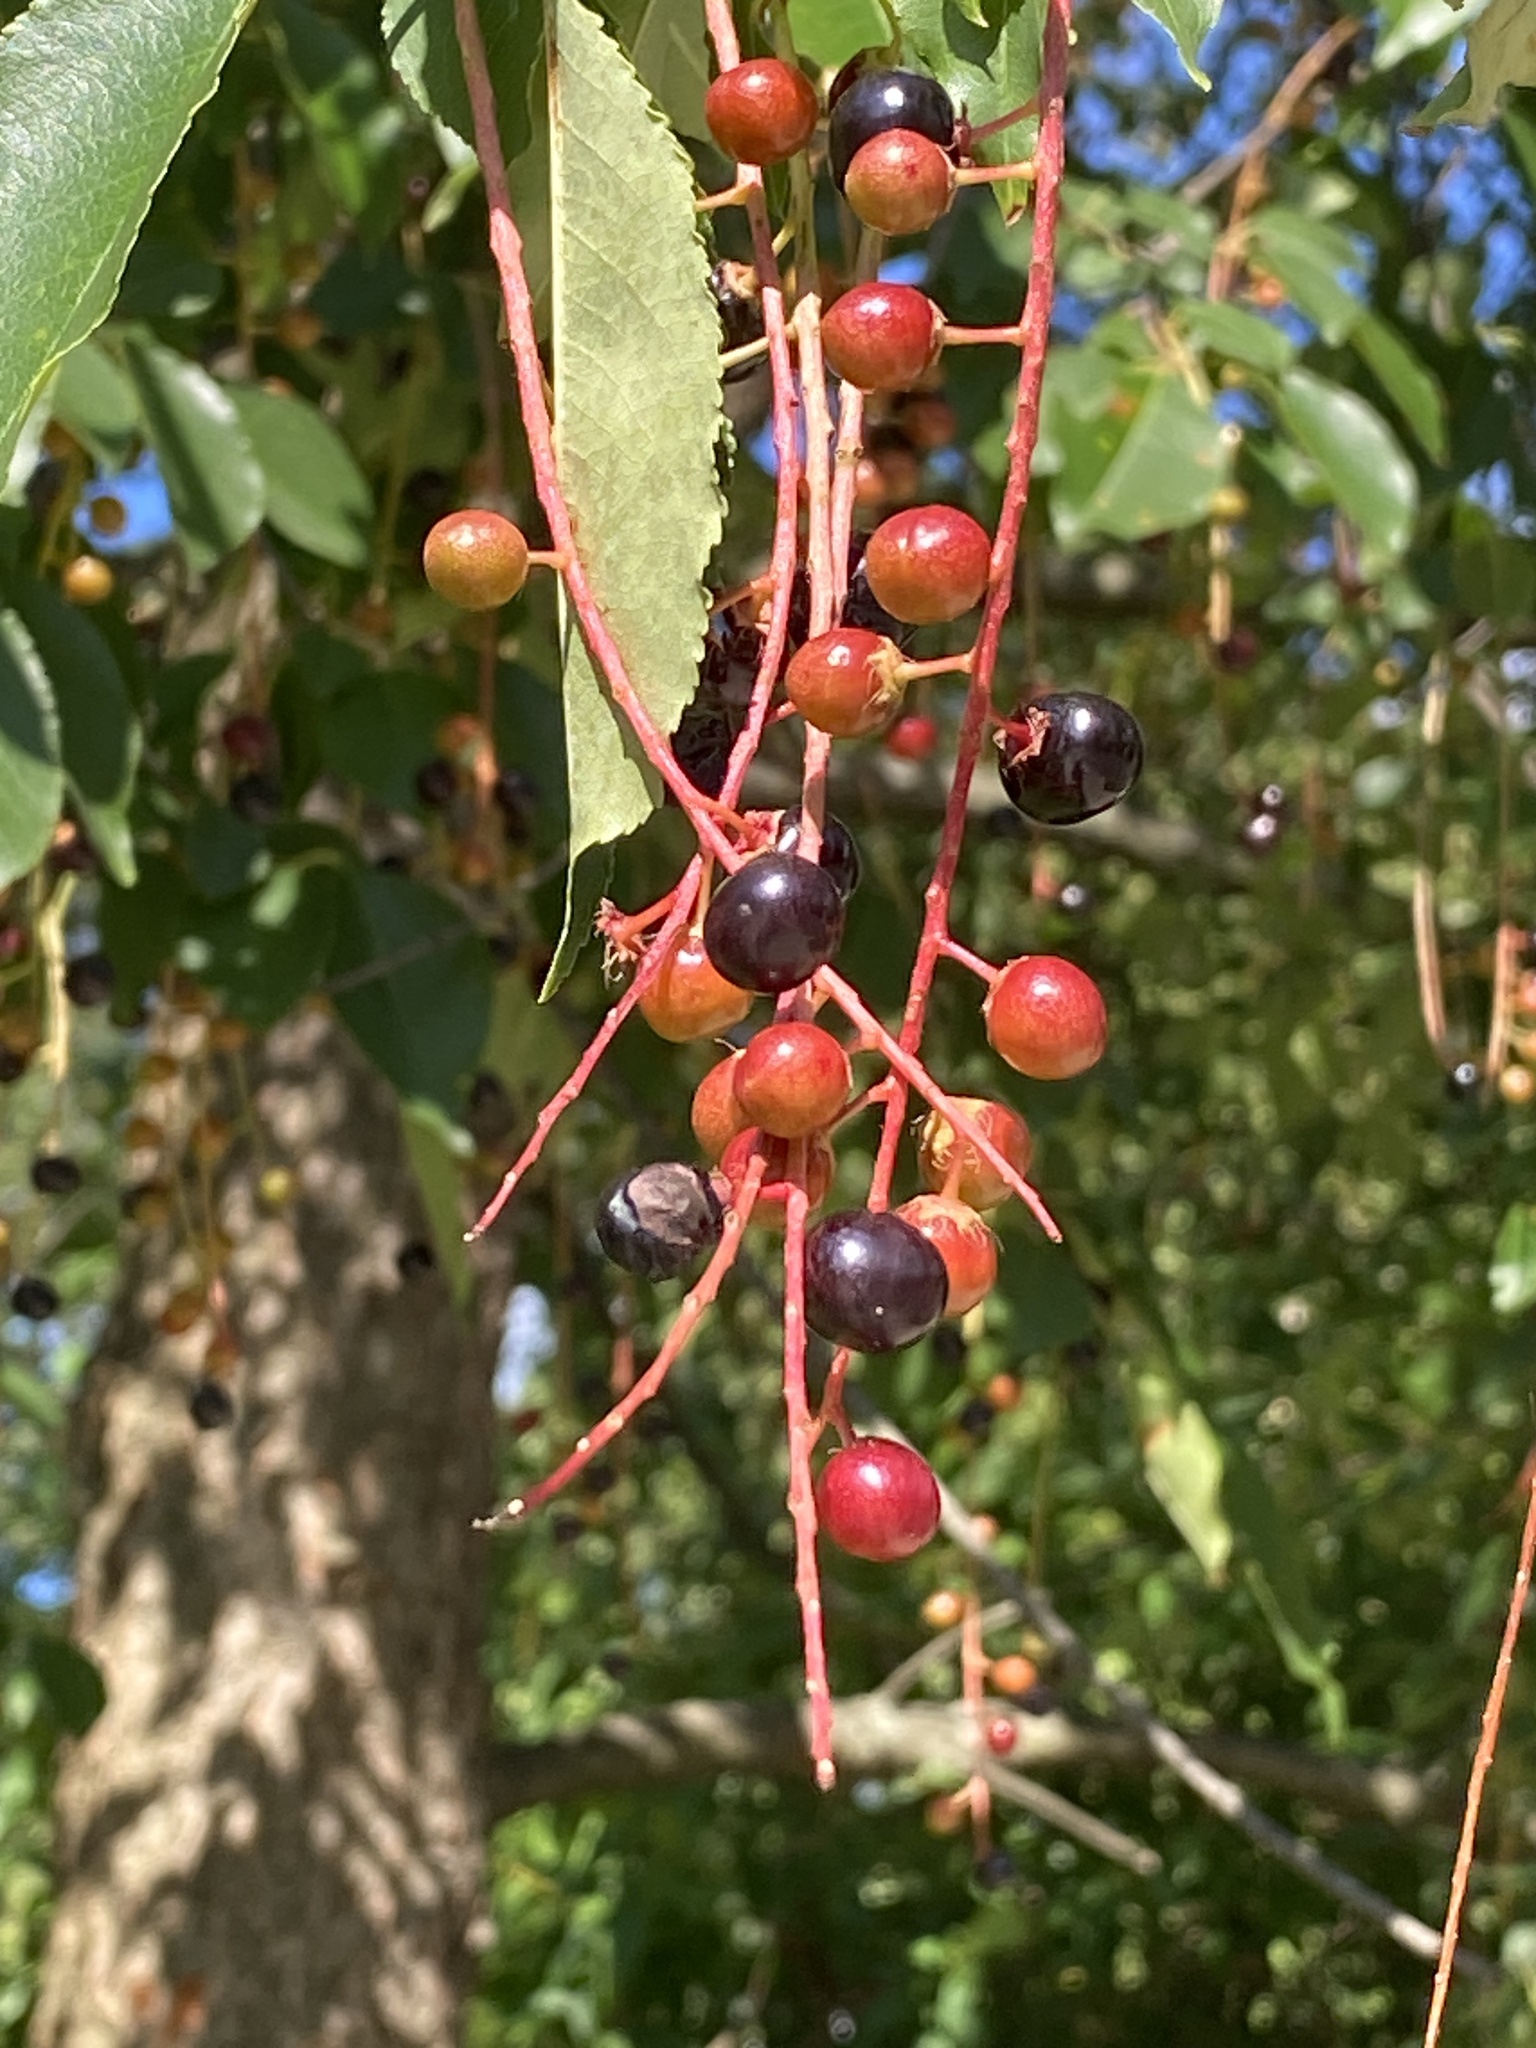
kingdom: Plantae
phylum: Tracheophyta
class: Magnoliopsida
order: Rosales
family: Rosaceae
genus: Prunus
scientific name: Prunus serotina
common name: Black cherry
